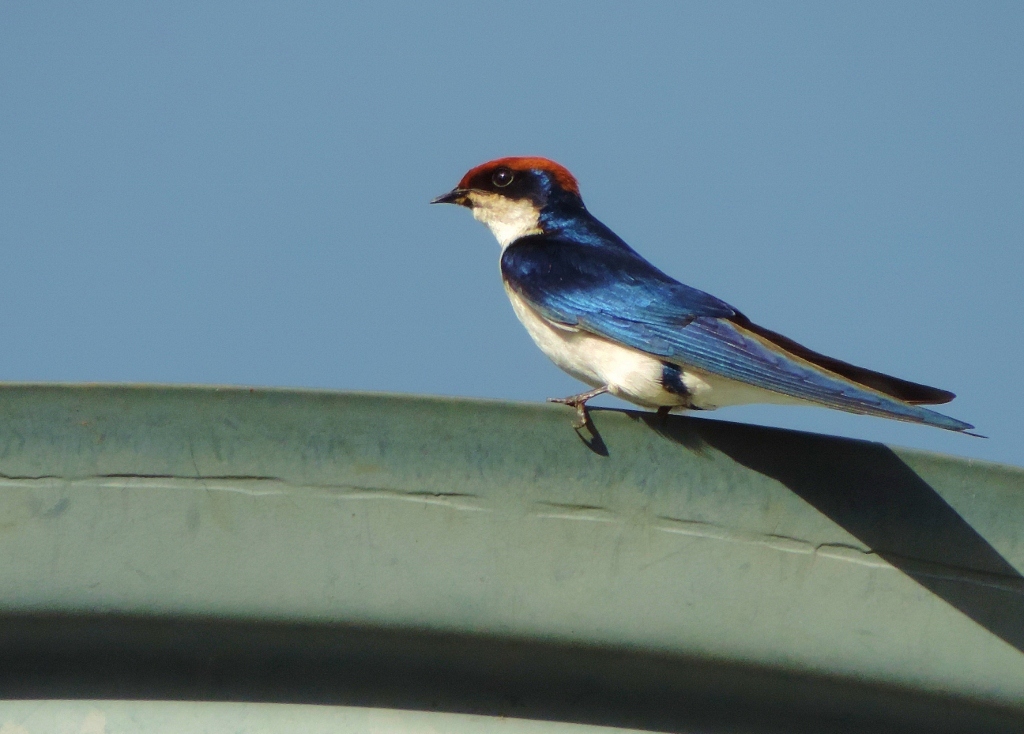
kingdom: Animalia
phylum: Chordata
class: Aves
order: Passeriformes
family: Hirundinidae
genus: Hirundo
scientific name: Hirundo smithii
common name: Wire-tailed swallow
